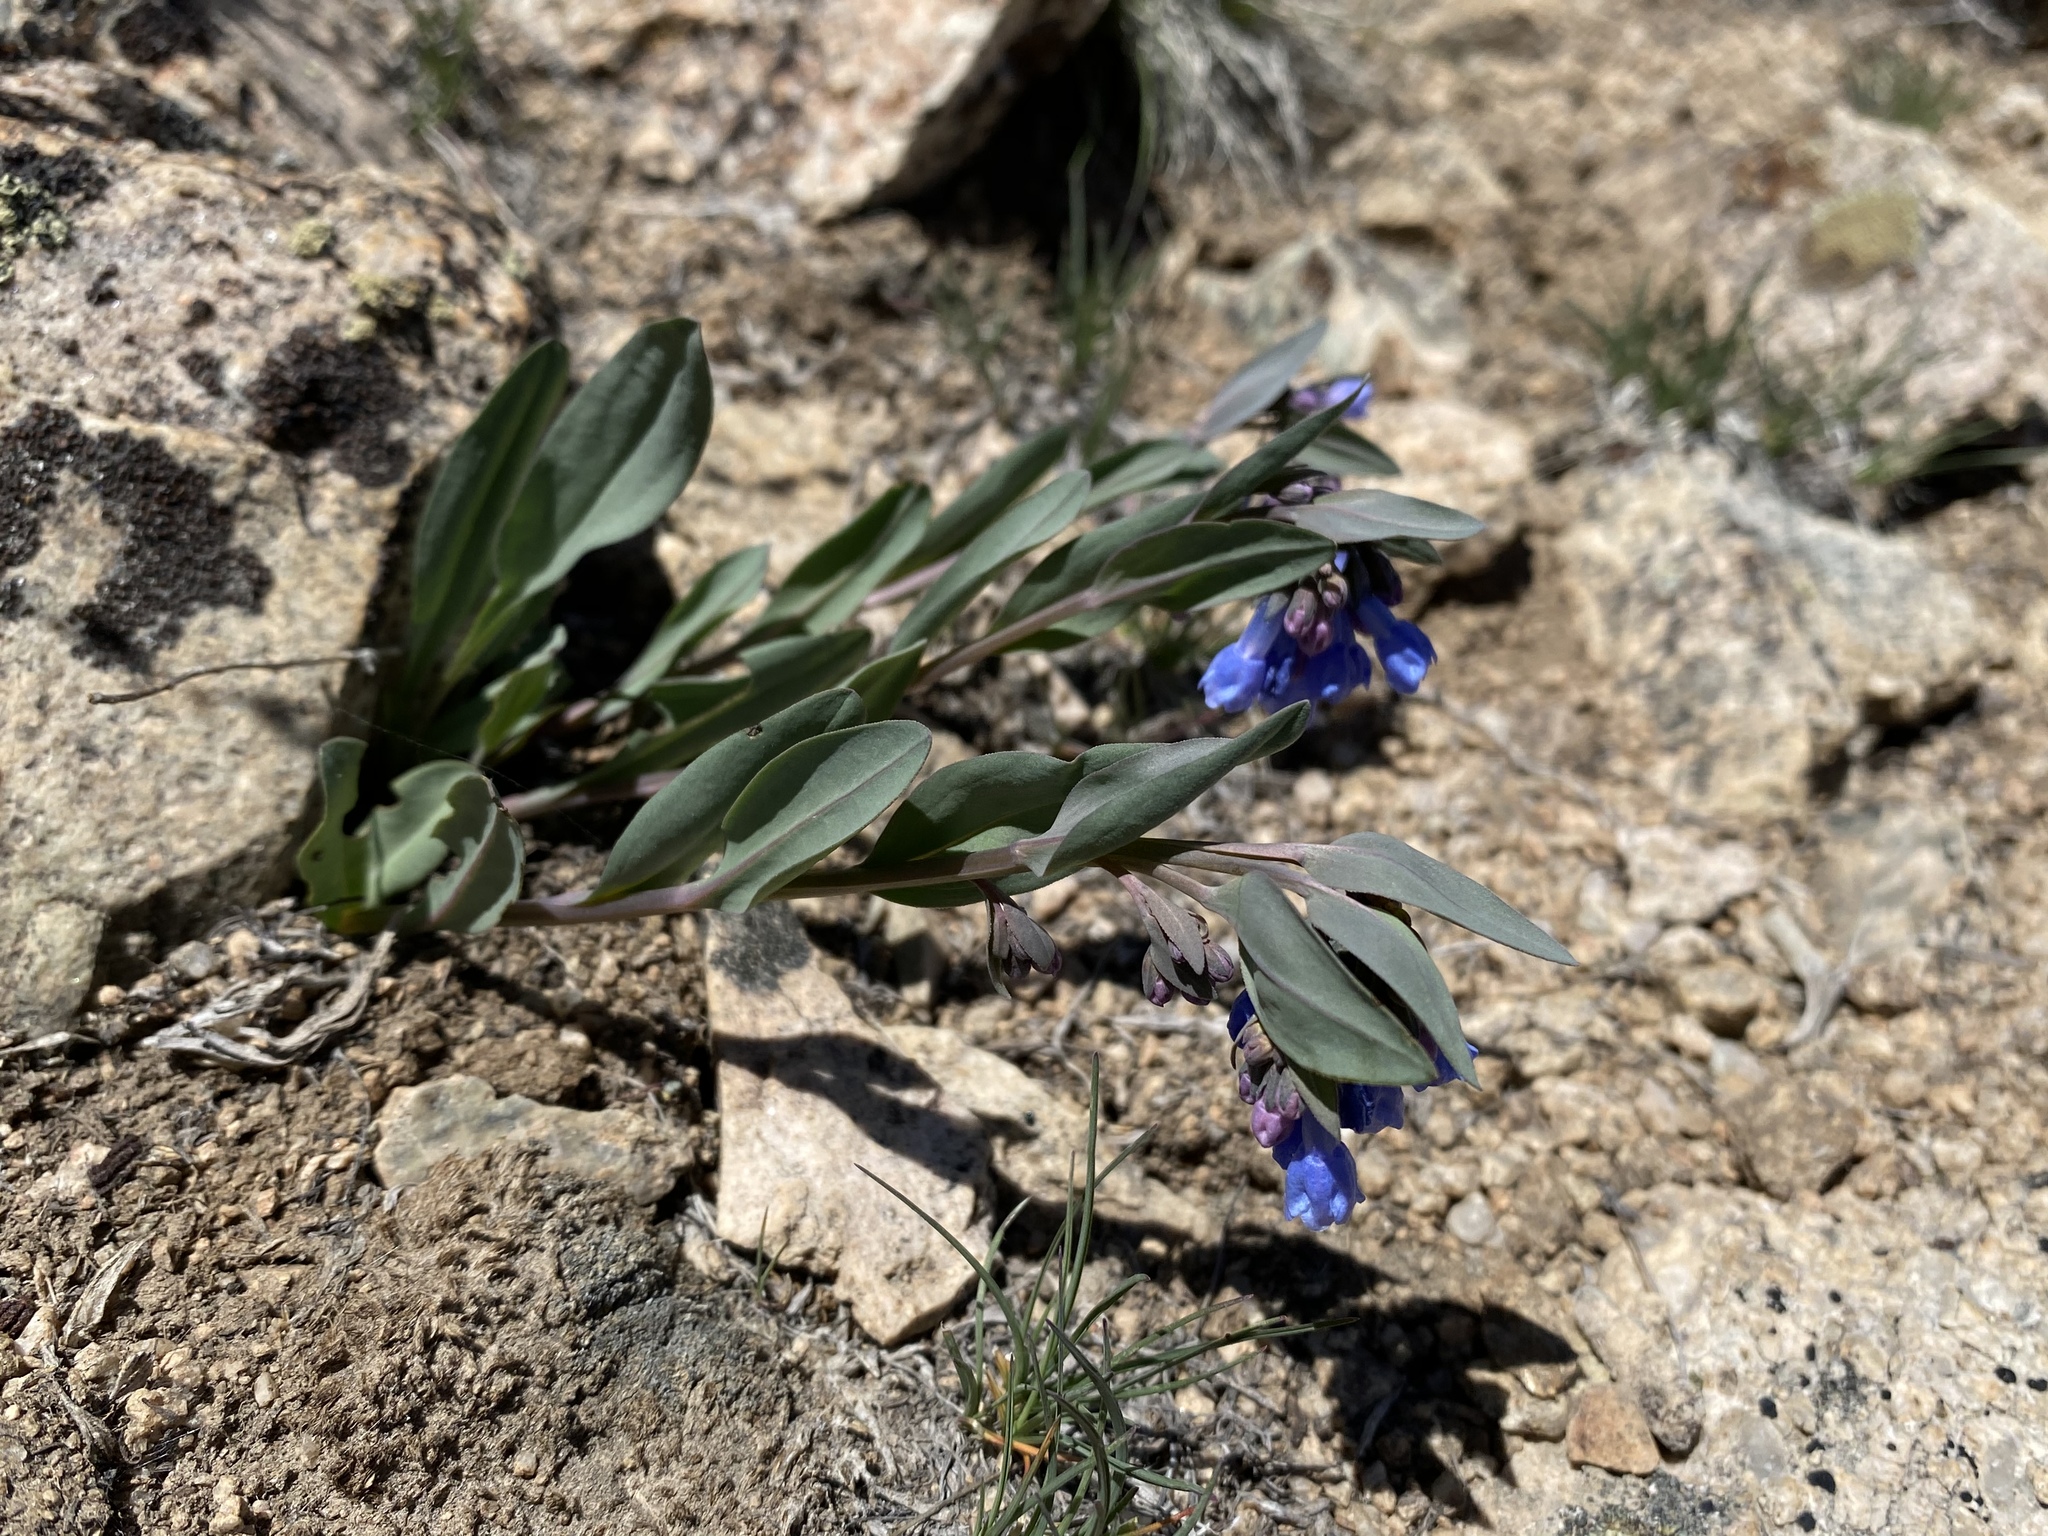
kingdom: Plantae
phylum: Tracheophyta
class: Magnoliopsida
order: Boraginales
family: Boraginaceae
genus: Mertensia
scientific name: Mertensia nevadensis
